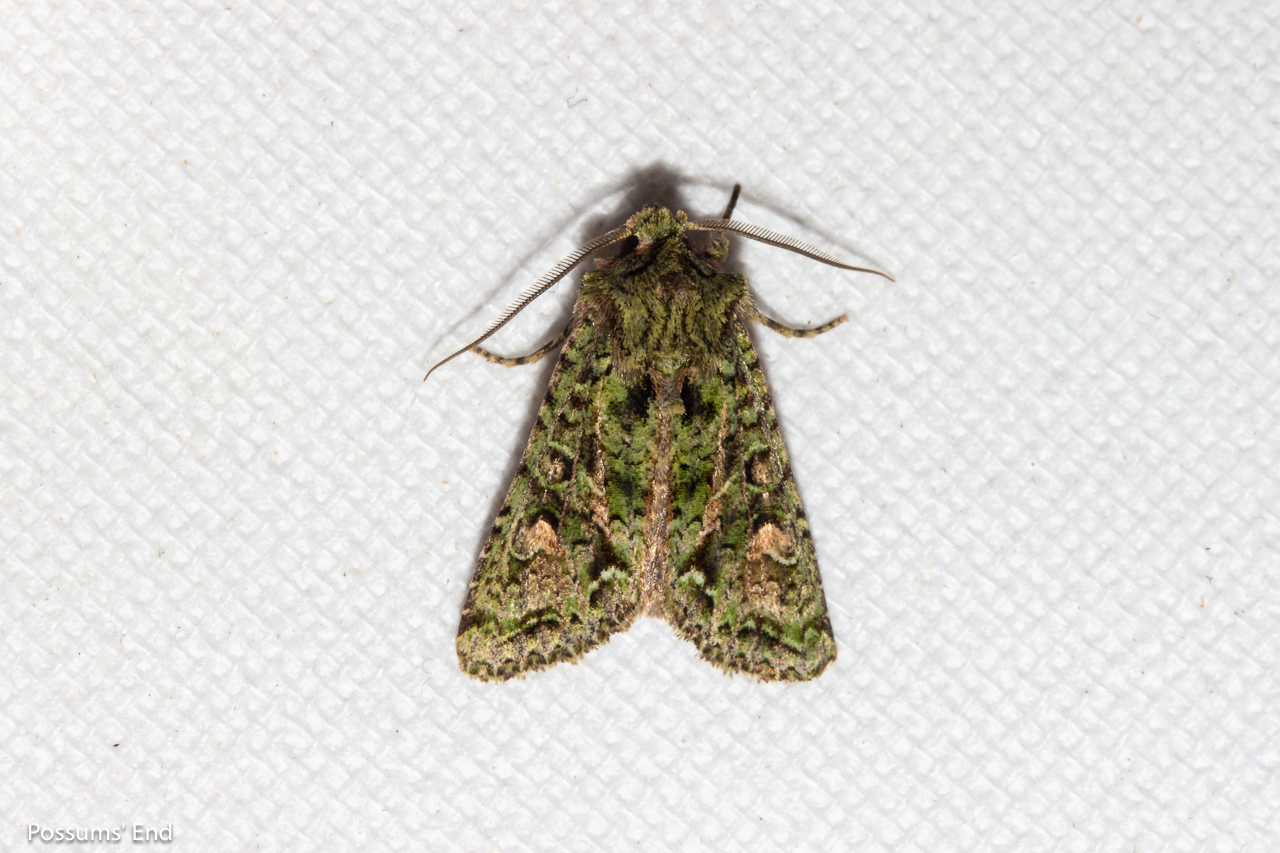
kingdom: Animalia
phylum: Arthropoda
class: Insecta
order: Lepidoptera
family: Noctuidae
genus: Ichneutica
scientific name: Ichneutica
